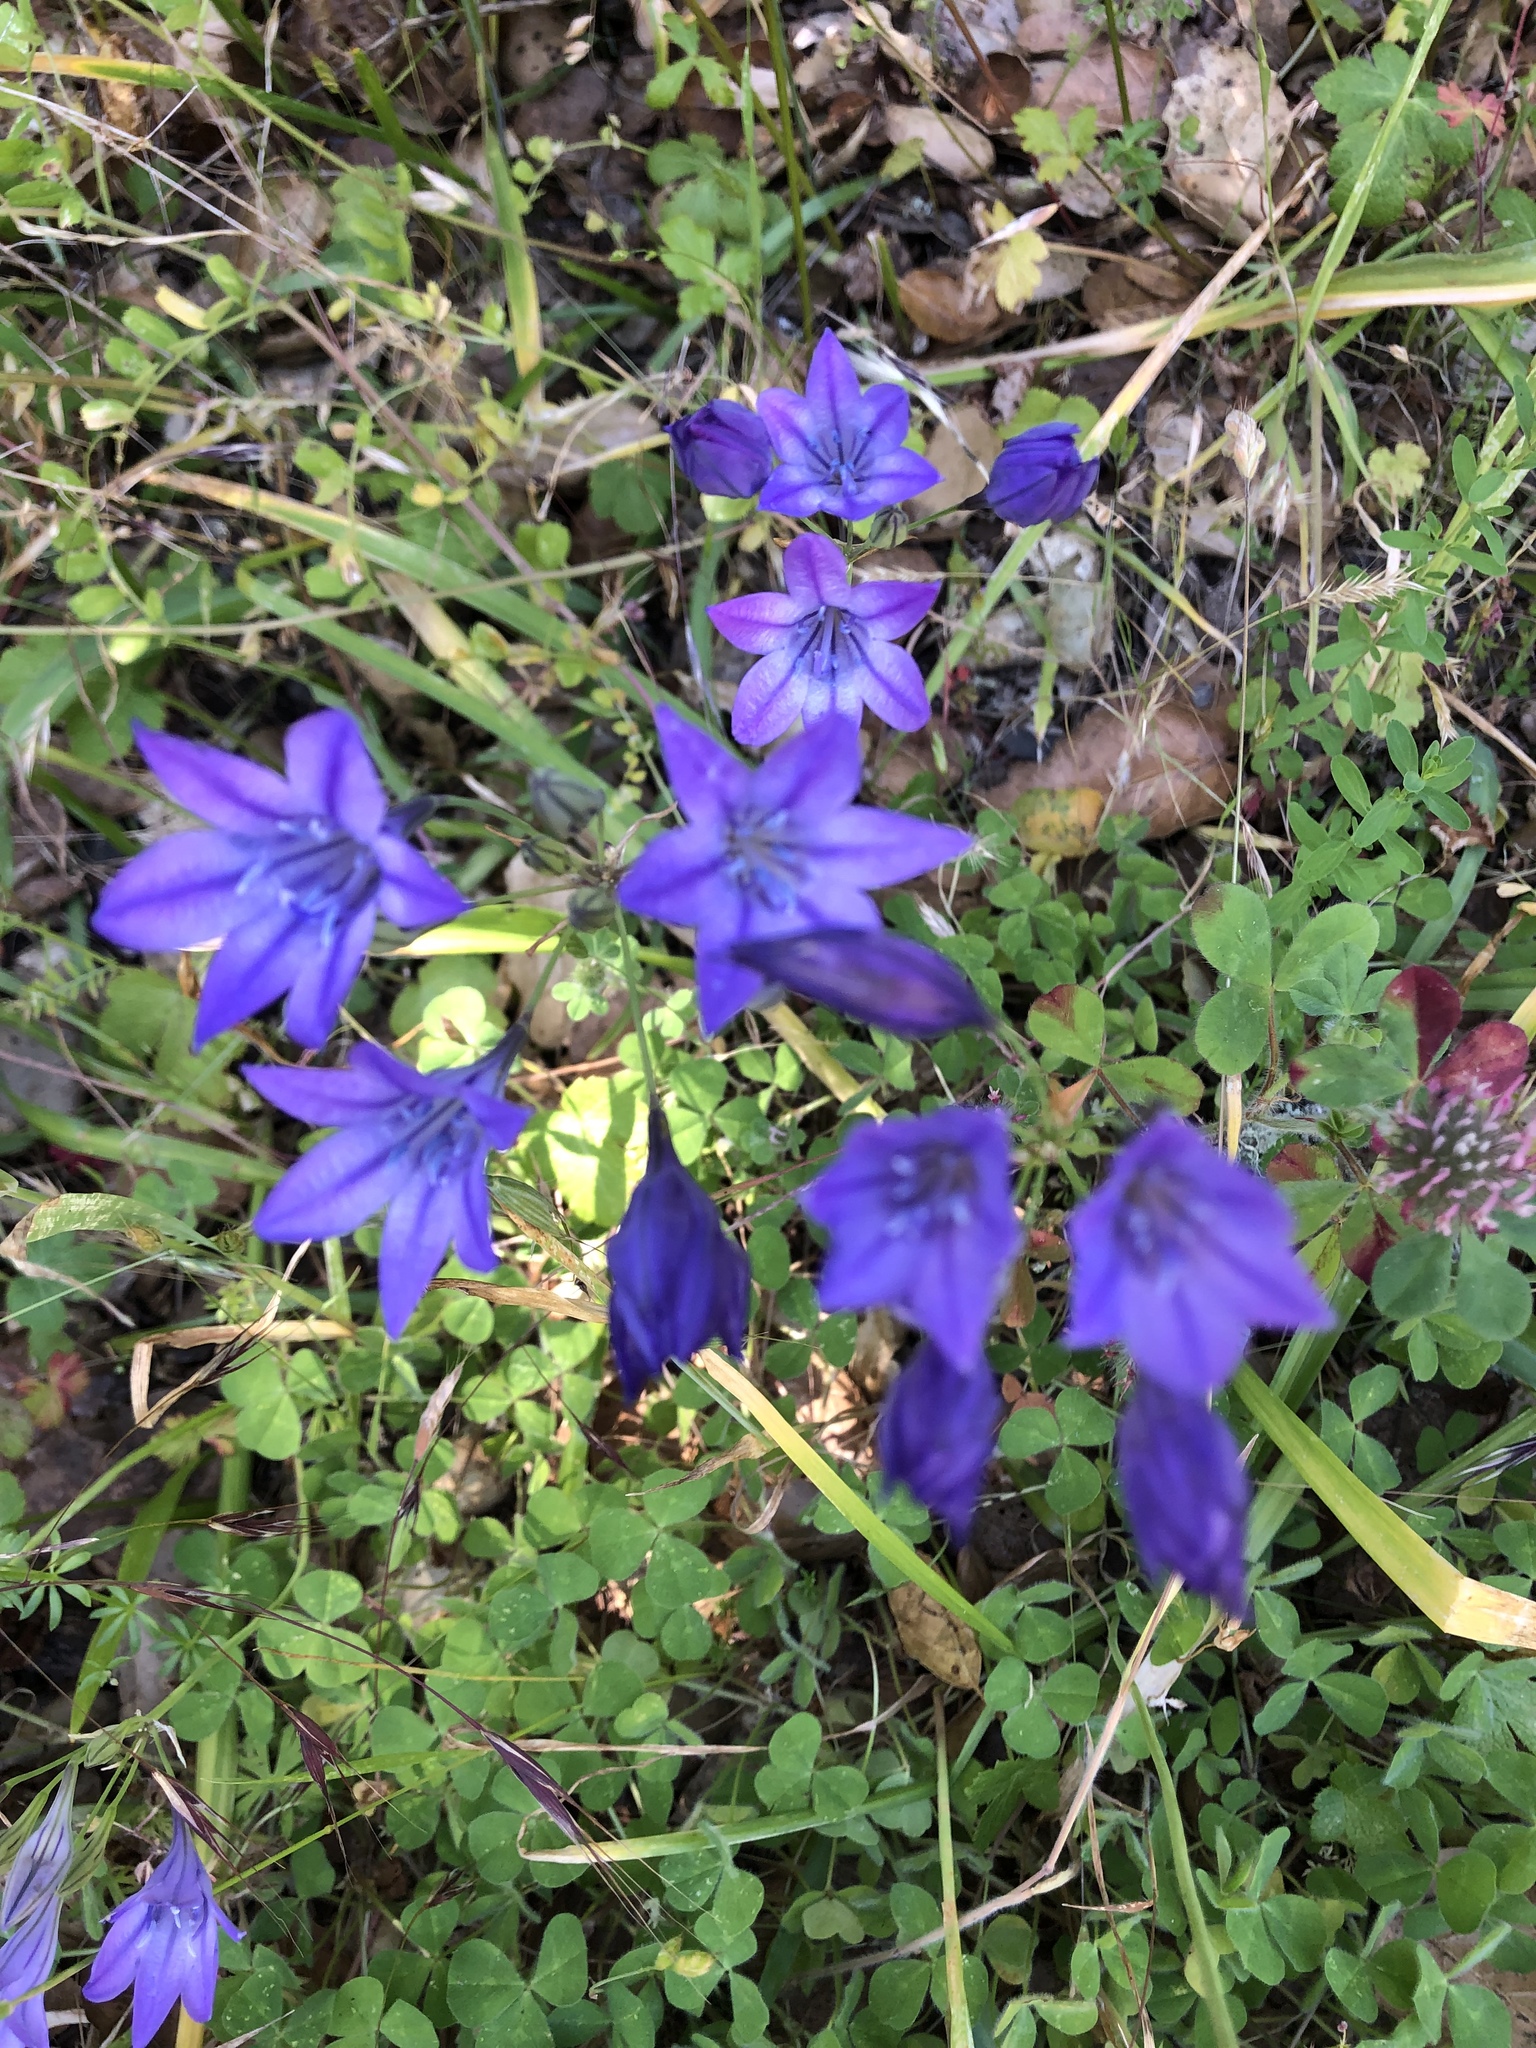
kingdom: Plantae
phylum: Tracheophyta
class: Liliopsida
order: Asparagales
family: Asparagaceae
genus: Triteleia
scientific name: Triteleia laxa
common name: Triplet-lily
